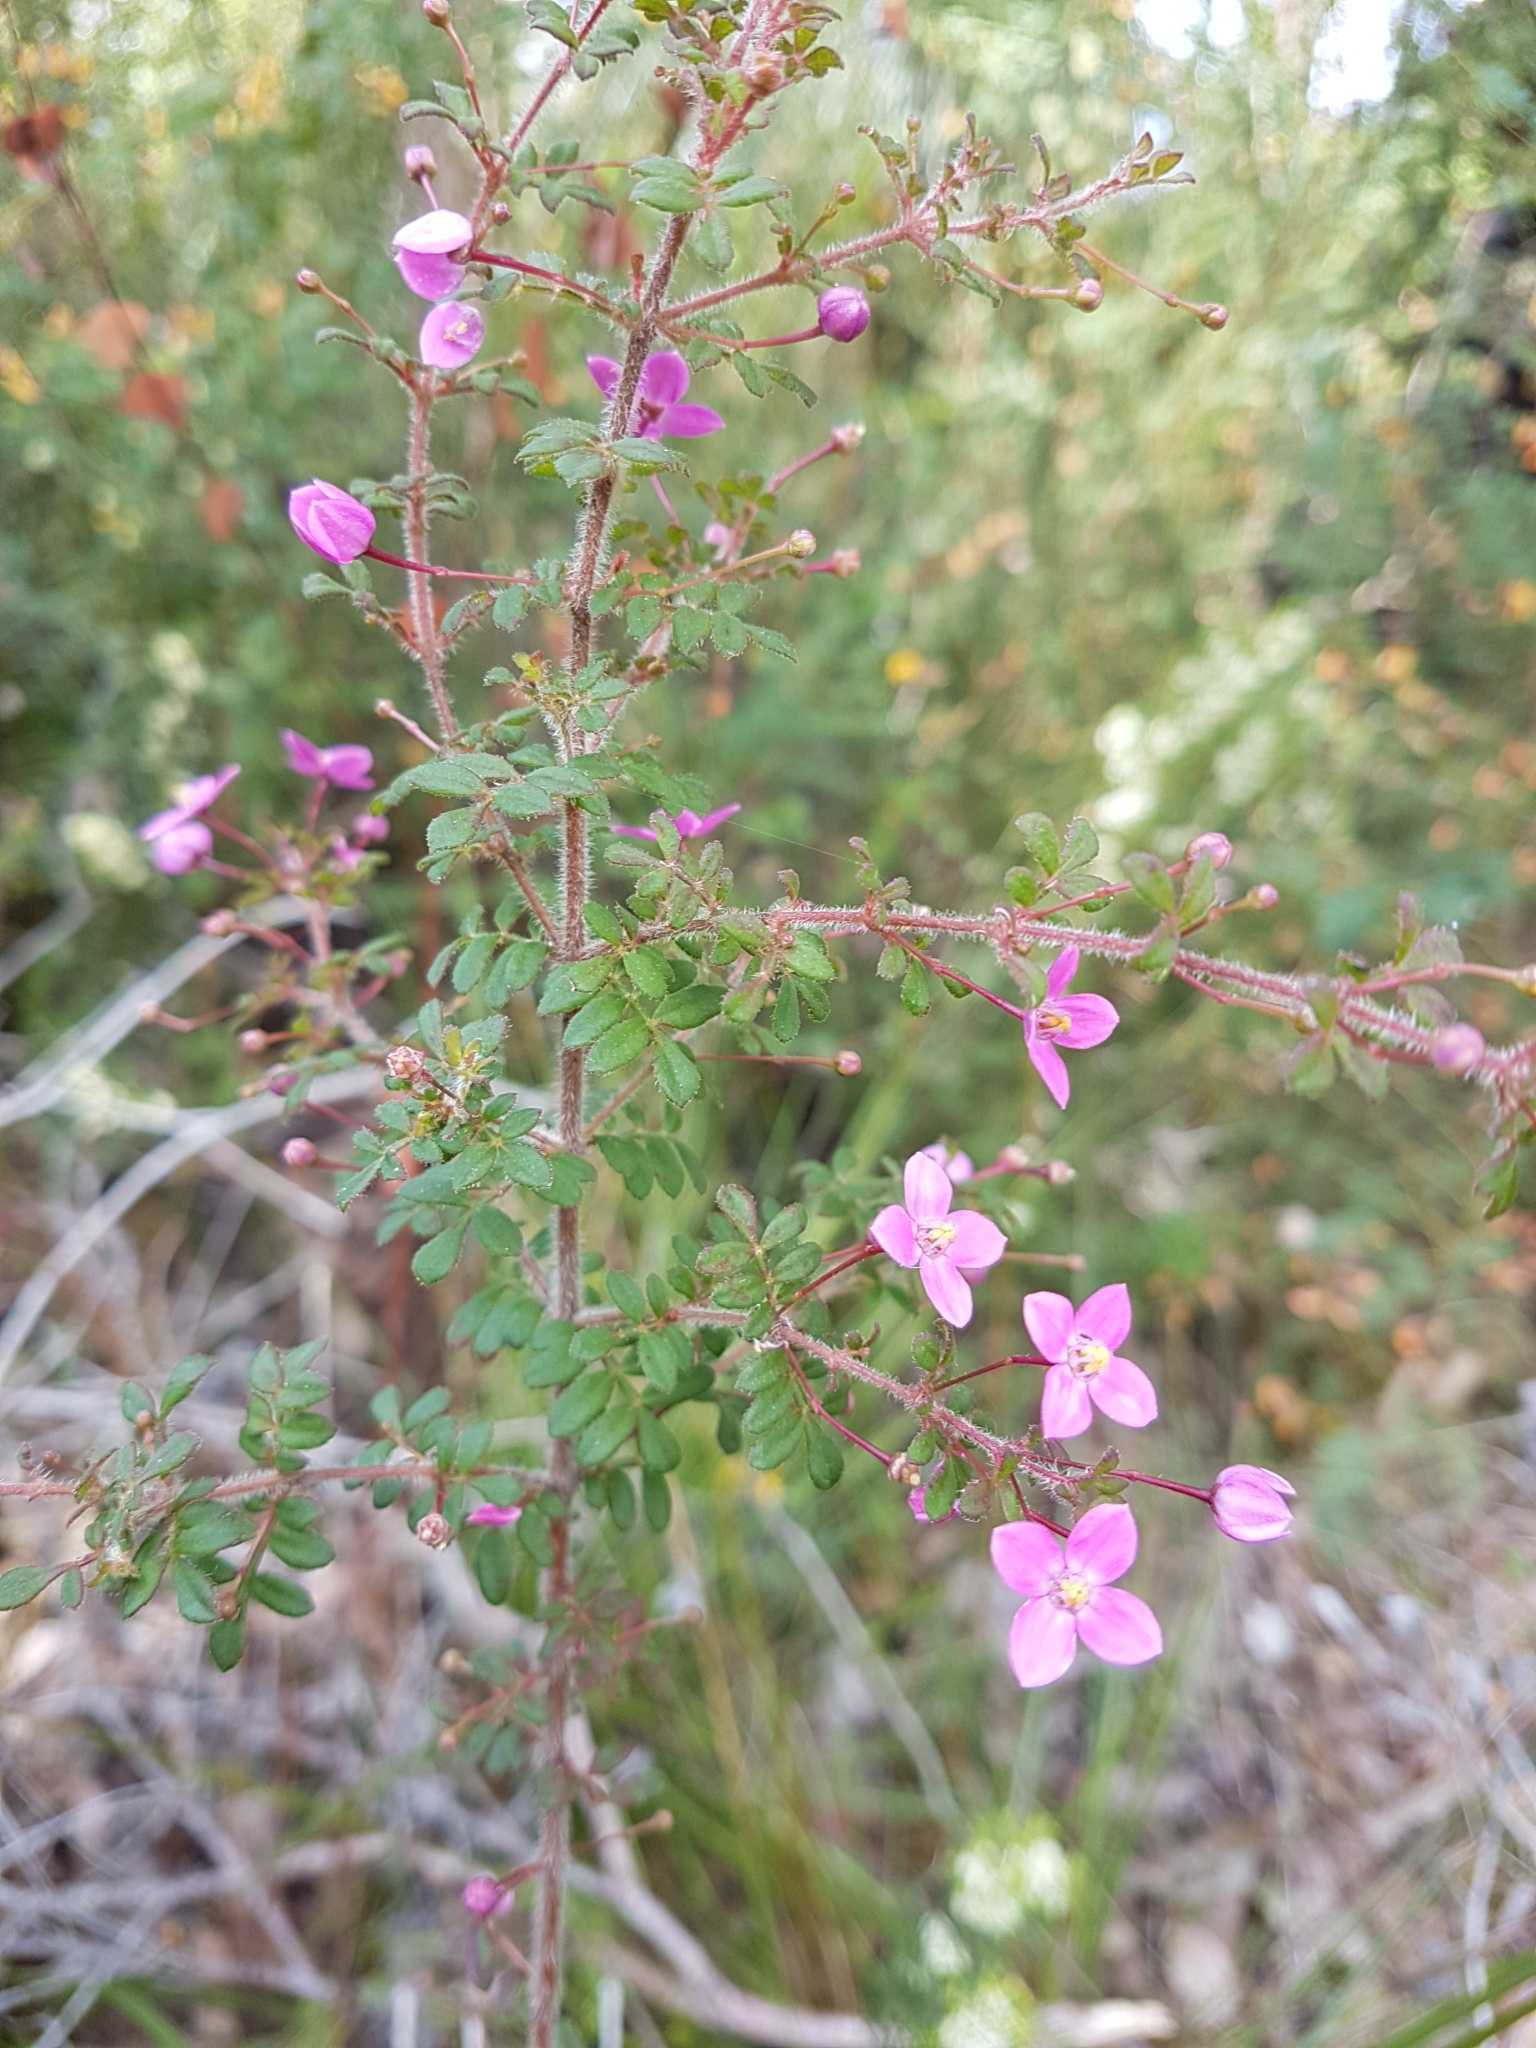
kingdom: Plantae
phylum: Tracheophyta
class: Magnoliopsida
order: Sapindales
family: Rutaceae
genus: Boronia
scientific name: Boronia gracilipes
